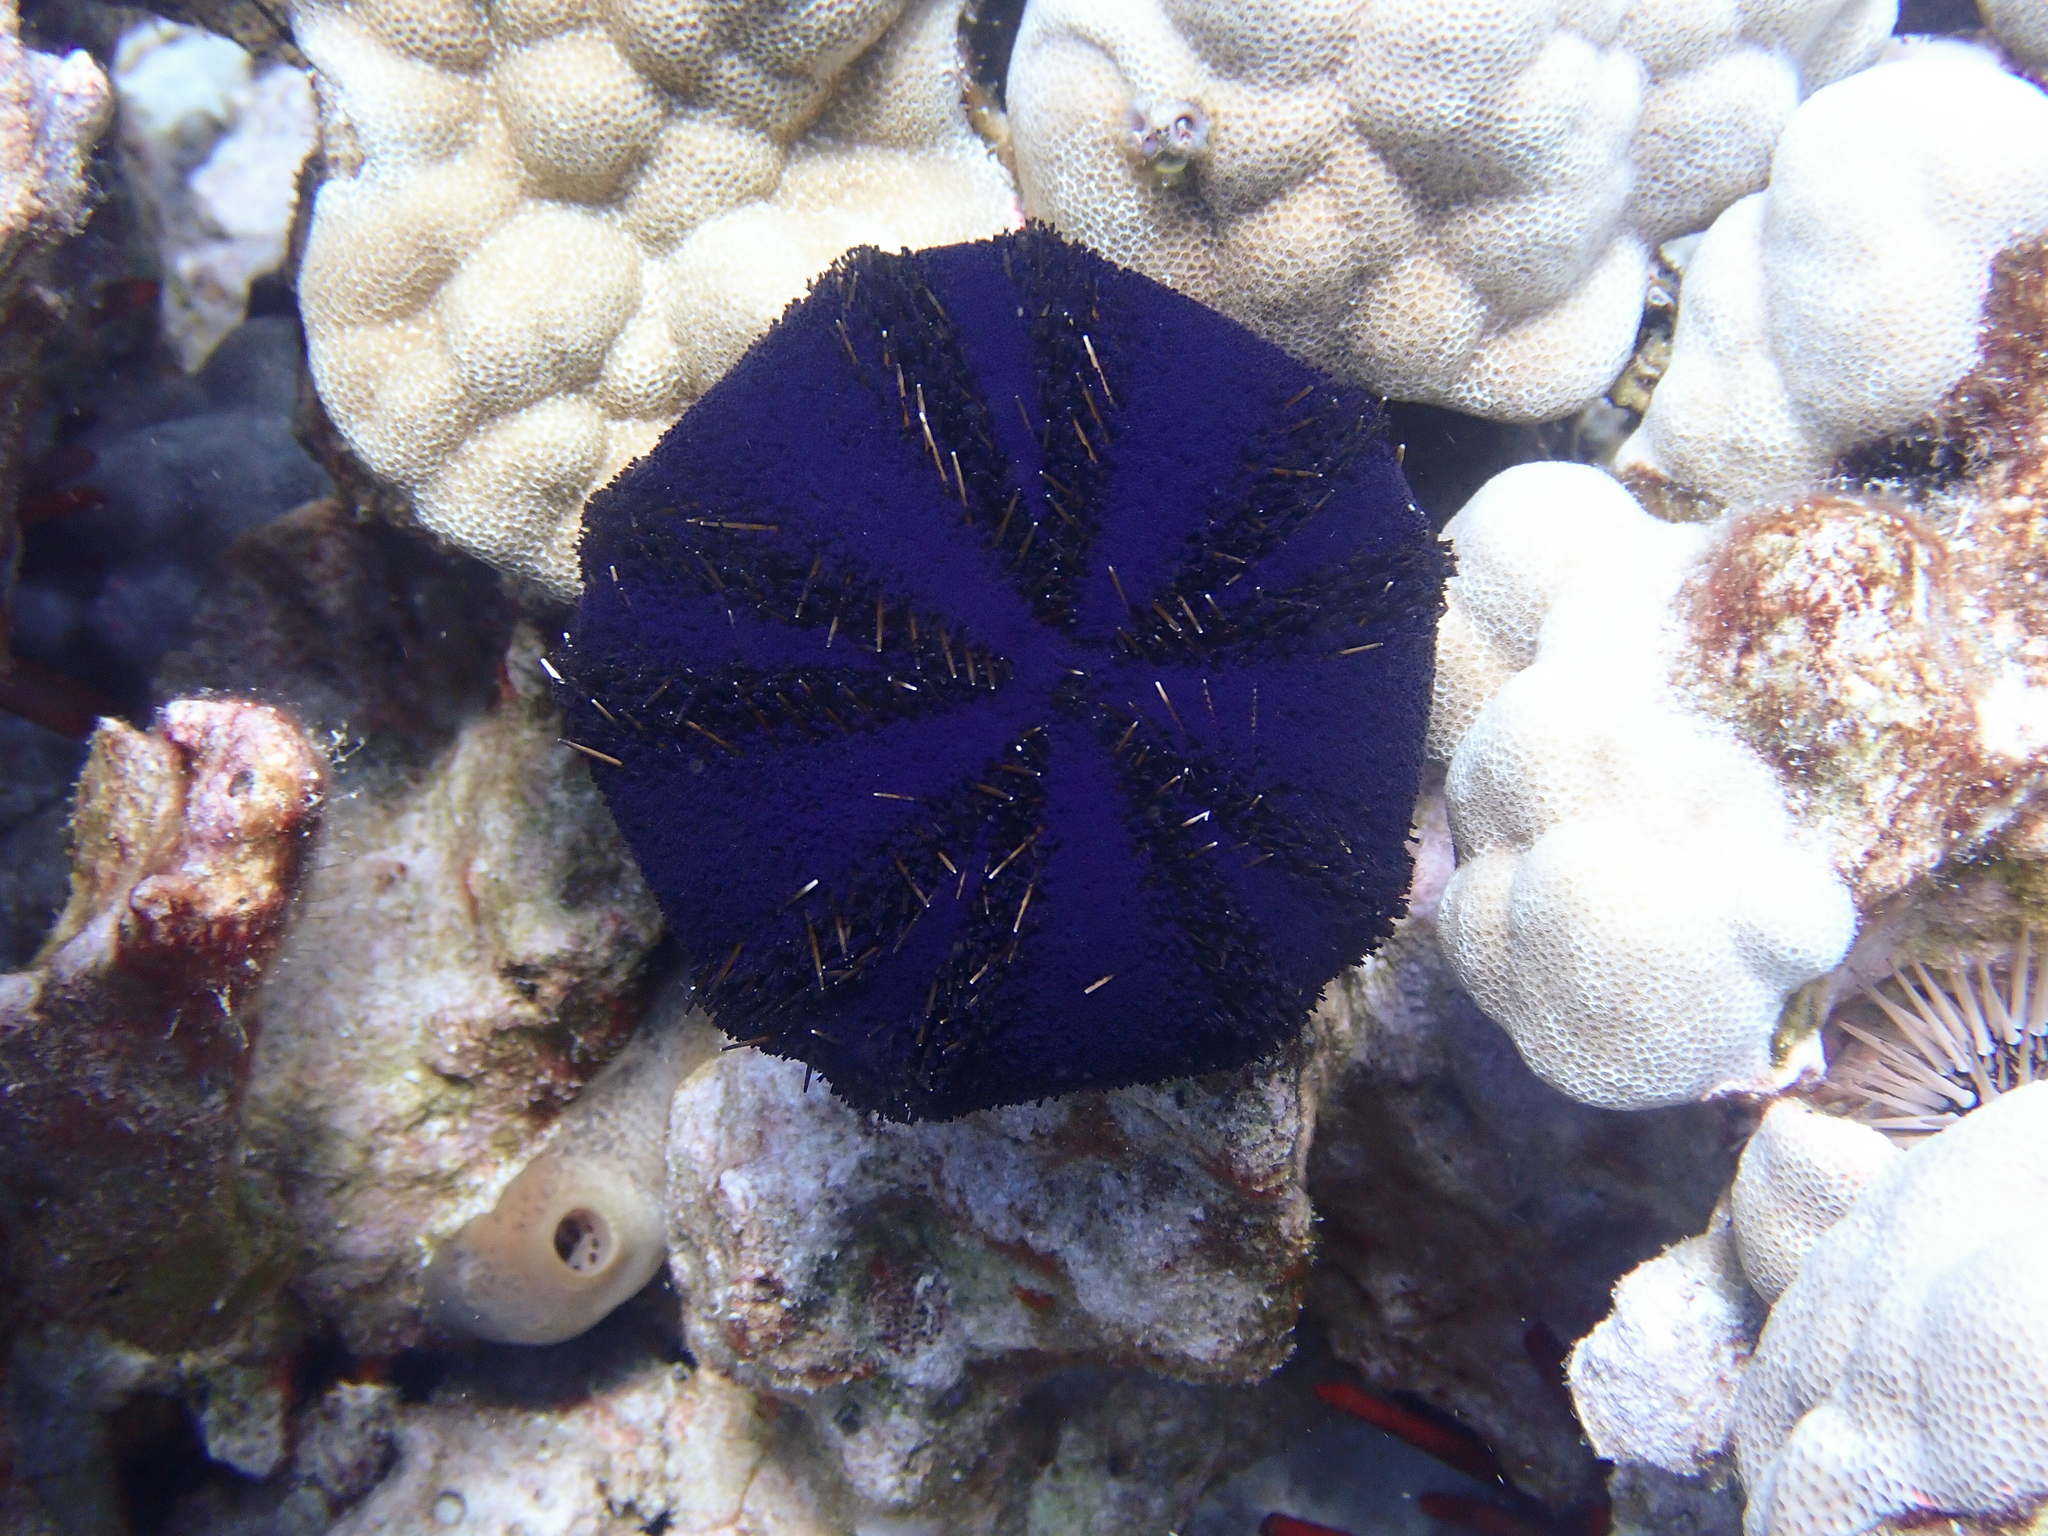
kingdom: Animalia
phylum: Echinodermata
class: Echinoidea
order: Camarodonta
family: Toxopneustidae
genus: Tripneustes
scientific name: Tripneustes gratilla
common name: Bischofsmützenseeigel
